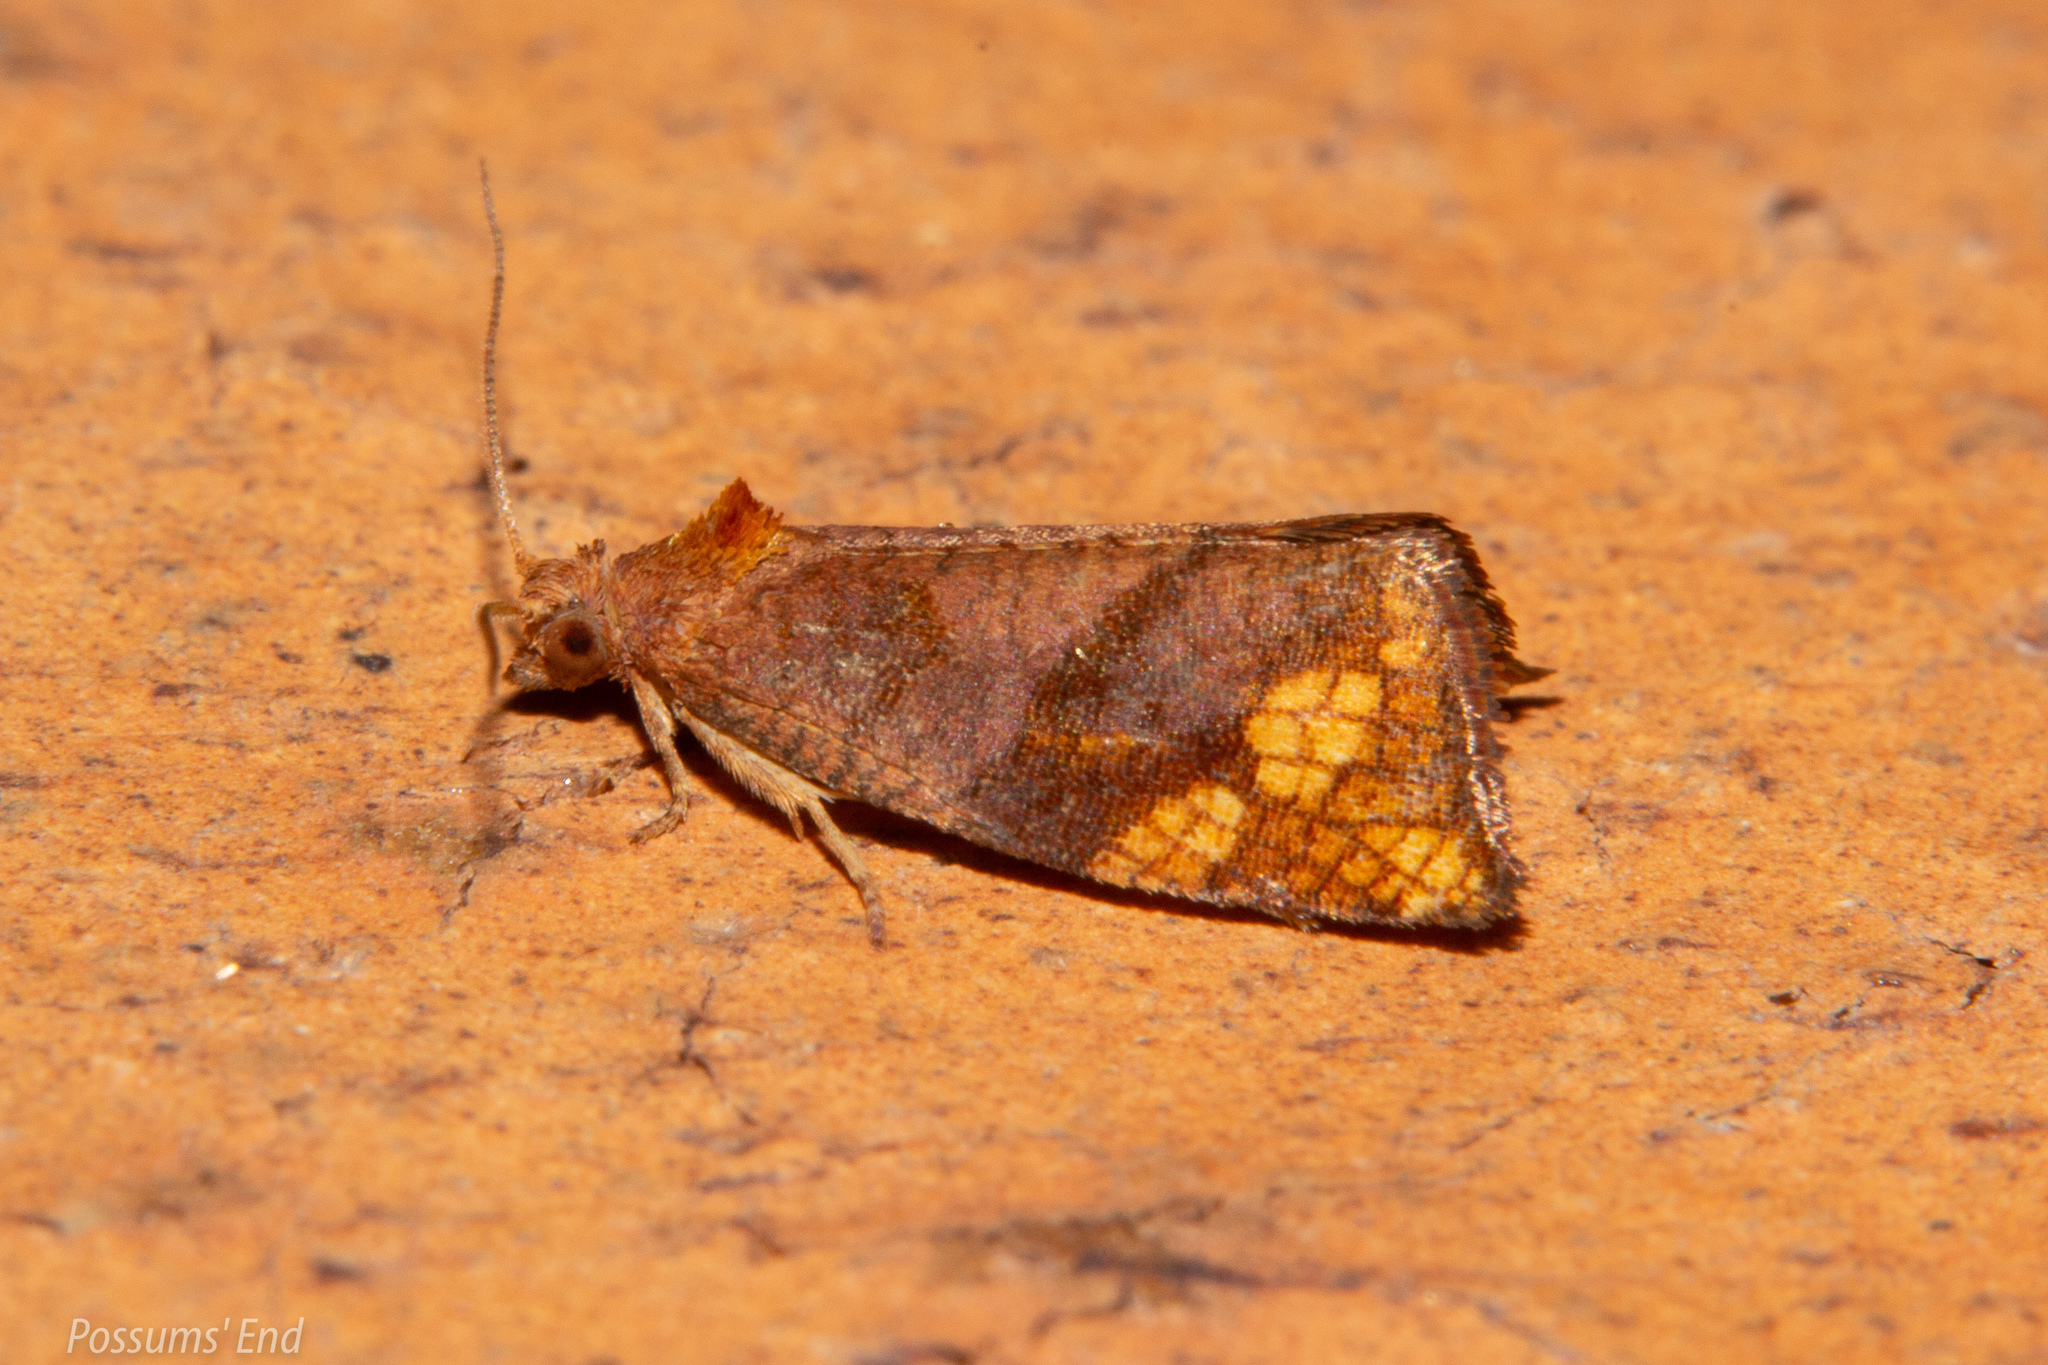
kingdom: Animalia
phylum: Arthropoda
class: Insecta
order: Lepidoptera
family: Tortricidae
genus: Pyrgotis
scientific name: Pyrgotis eudorana
